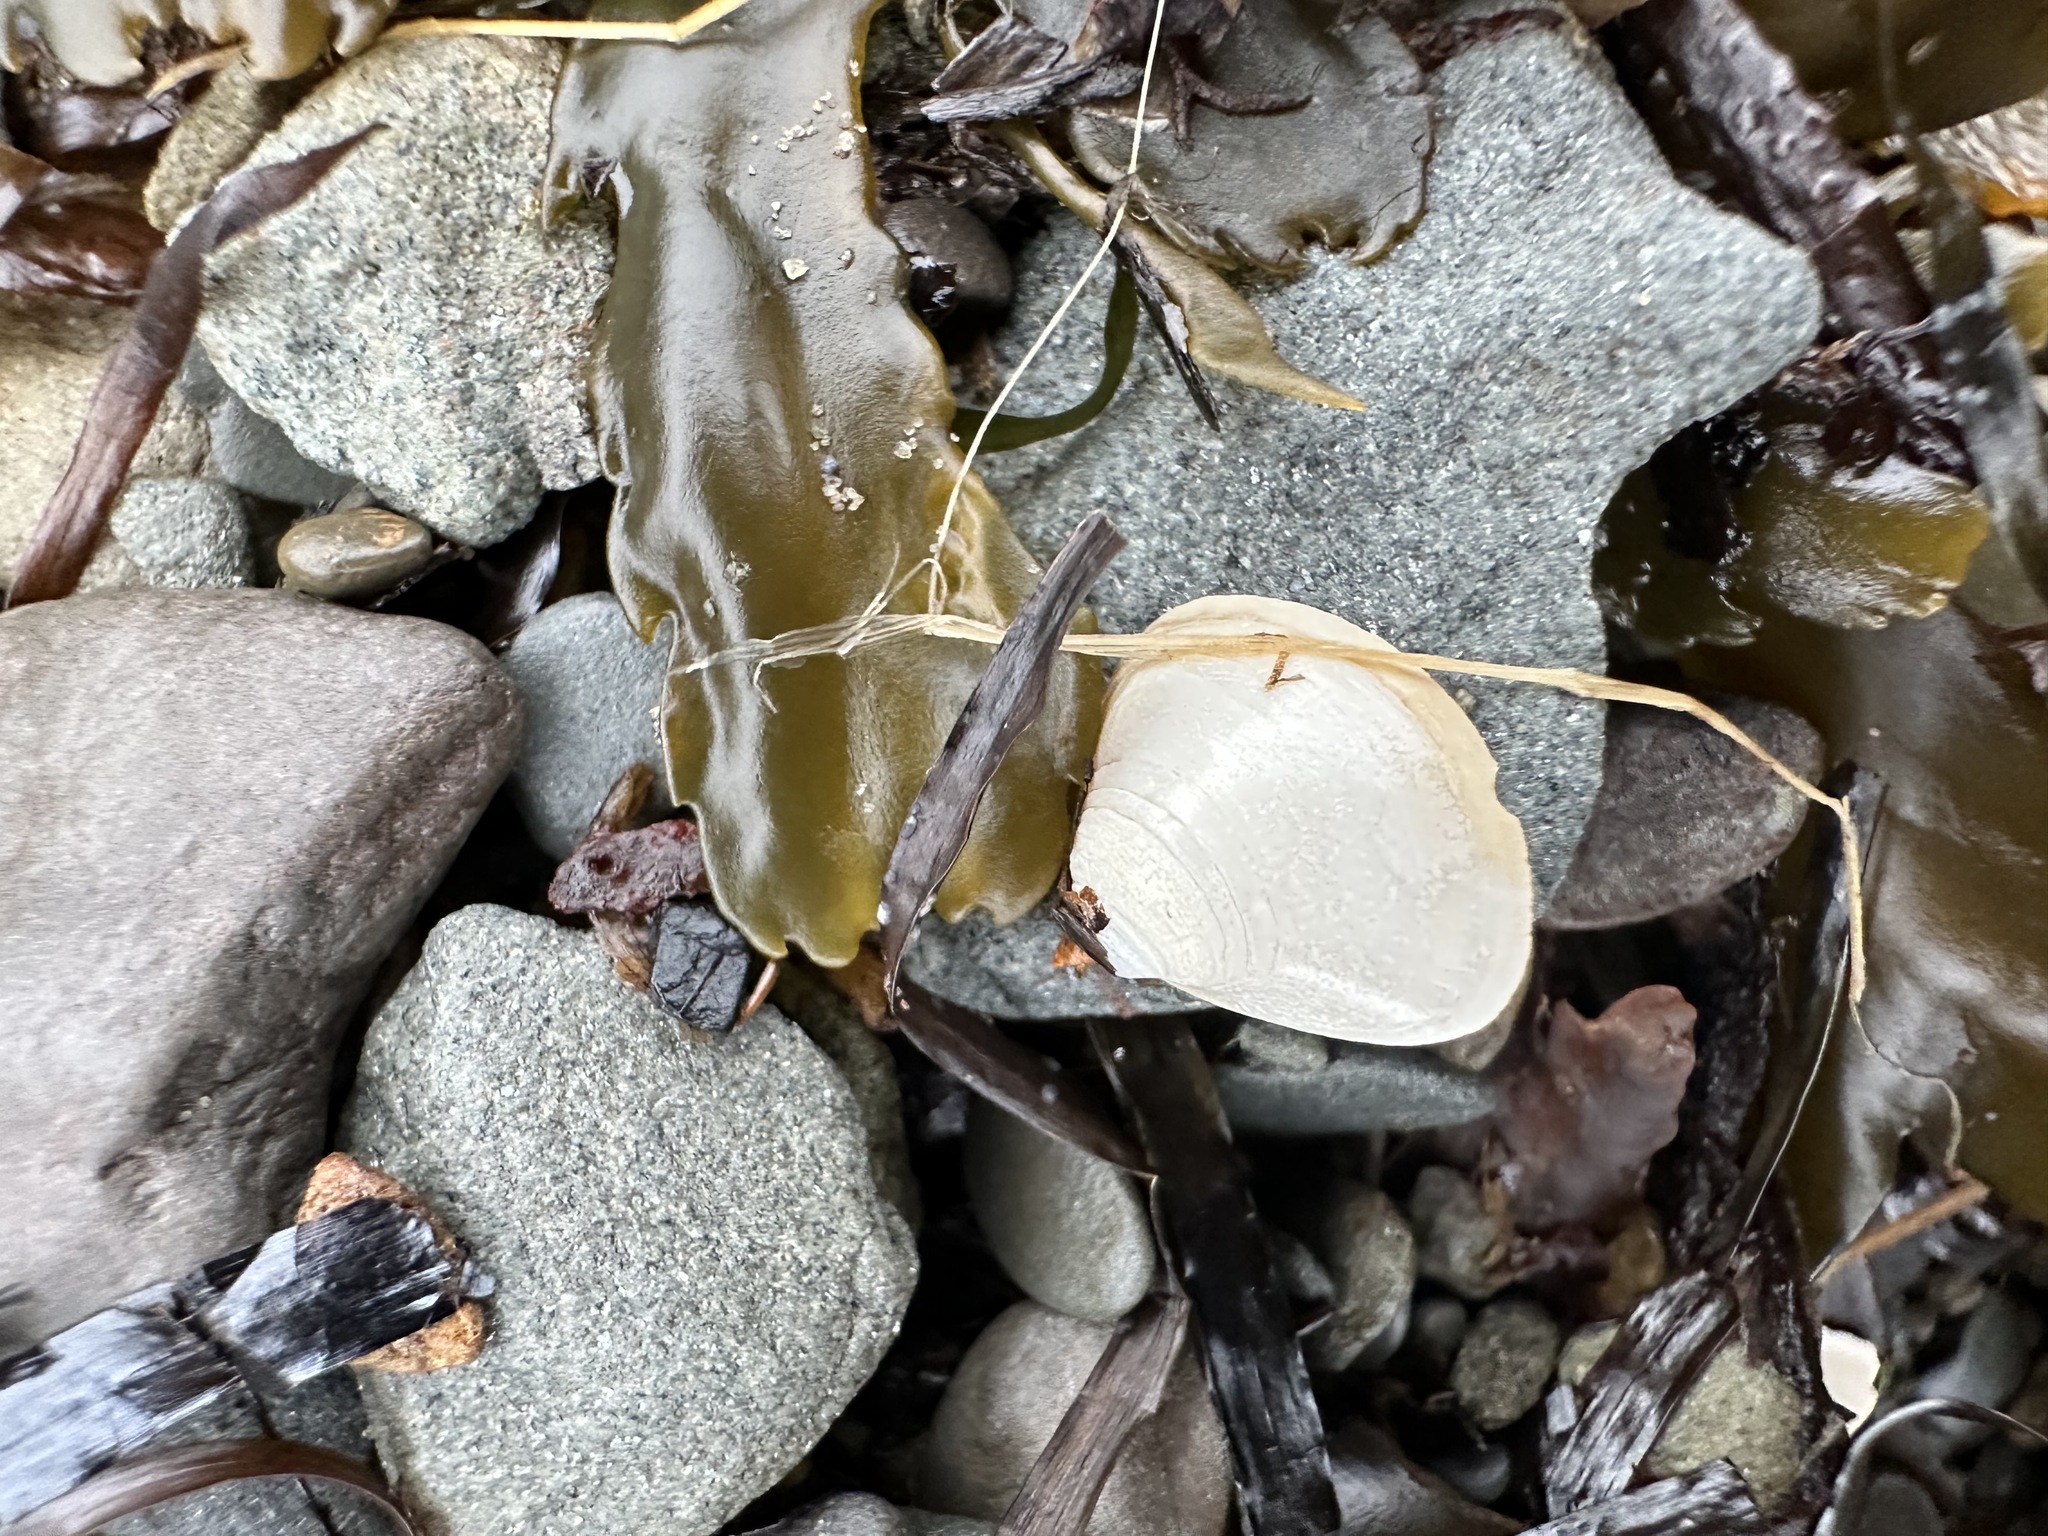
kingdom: Animalia
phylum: Mollusca
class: Bivalvia
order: Venerida
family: Mactridae
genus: Spisula
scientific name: Spisula solidissima
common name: Atlantic surf clam
